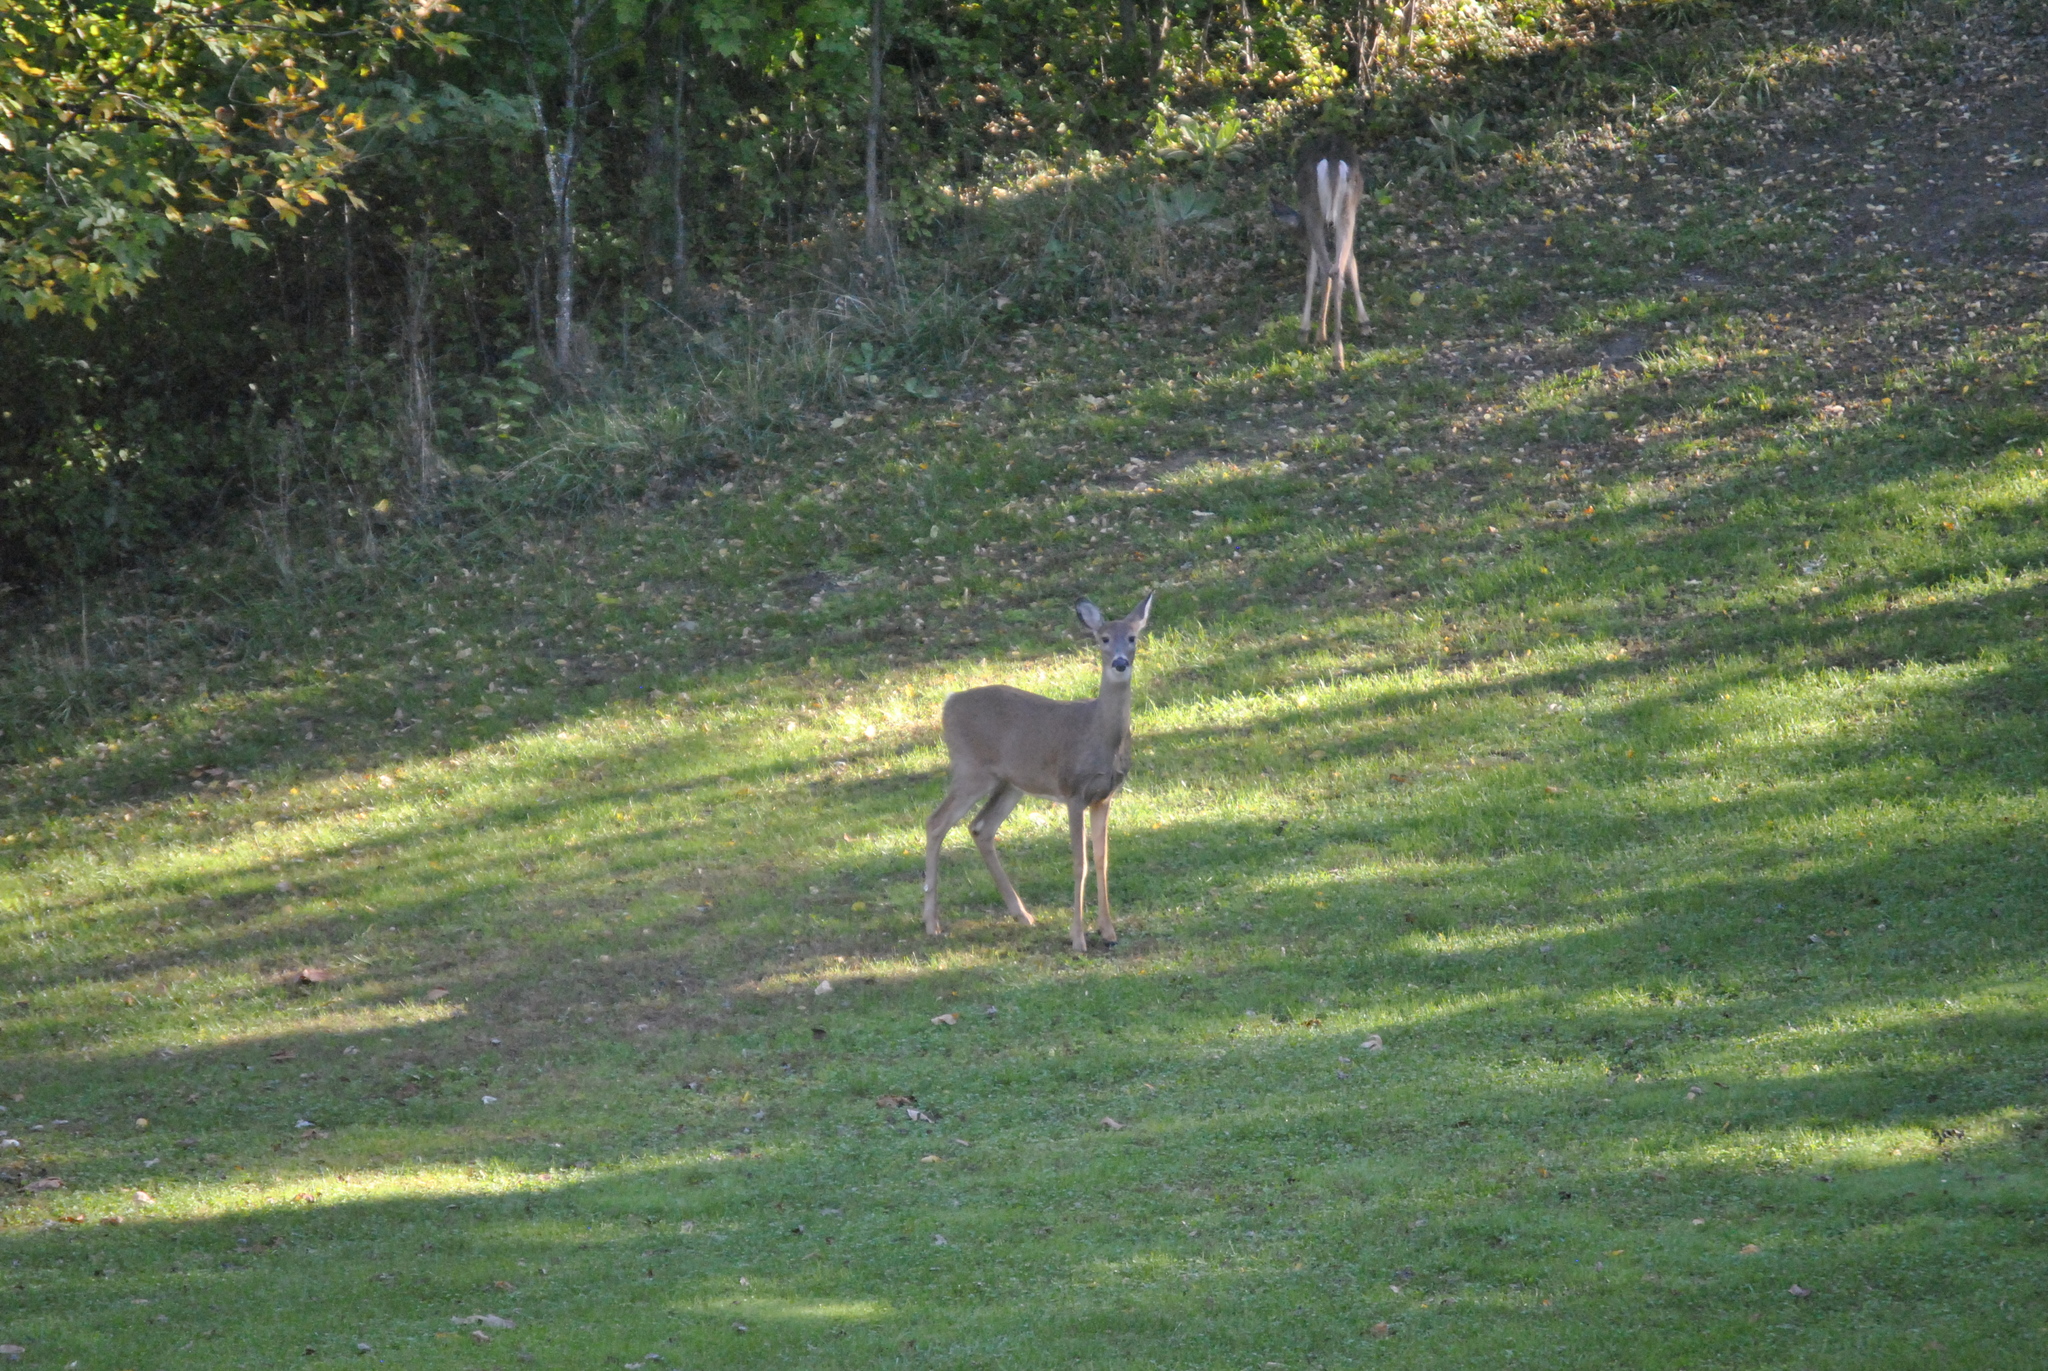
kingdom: Animalia
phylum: Chordata
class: Mammalia
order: Artiodactyla
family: Cervidae
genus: Odocoileus
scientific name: Odocoileus virginianus
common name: White-tailed deer
